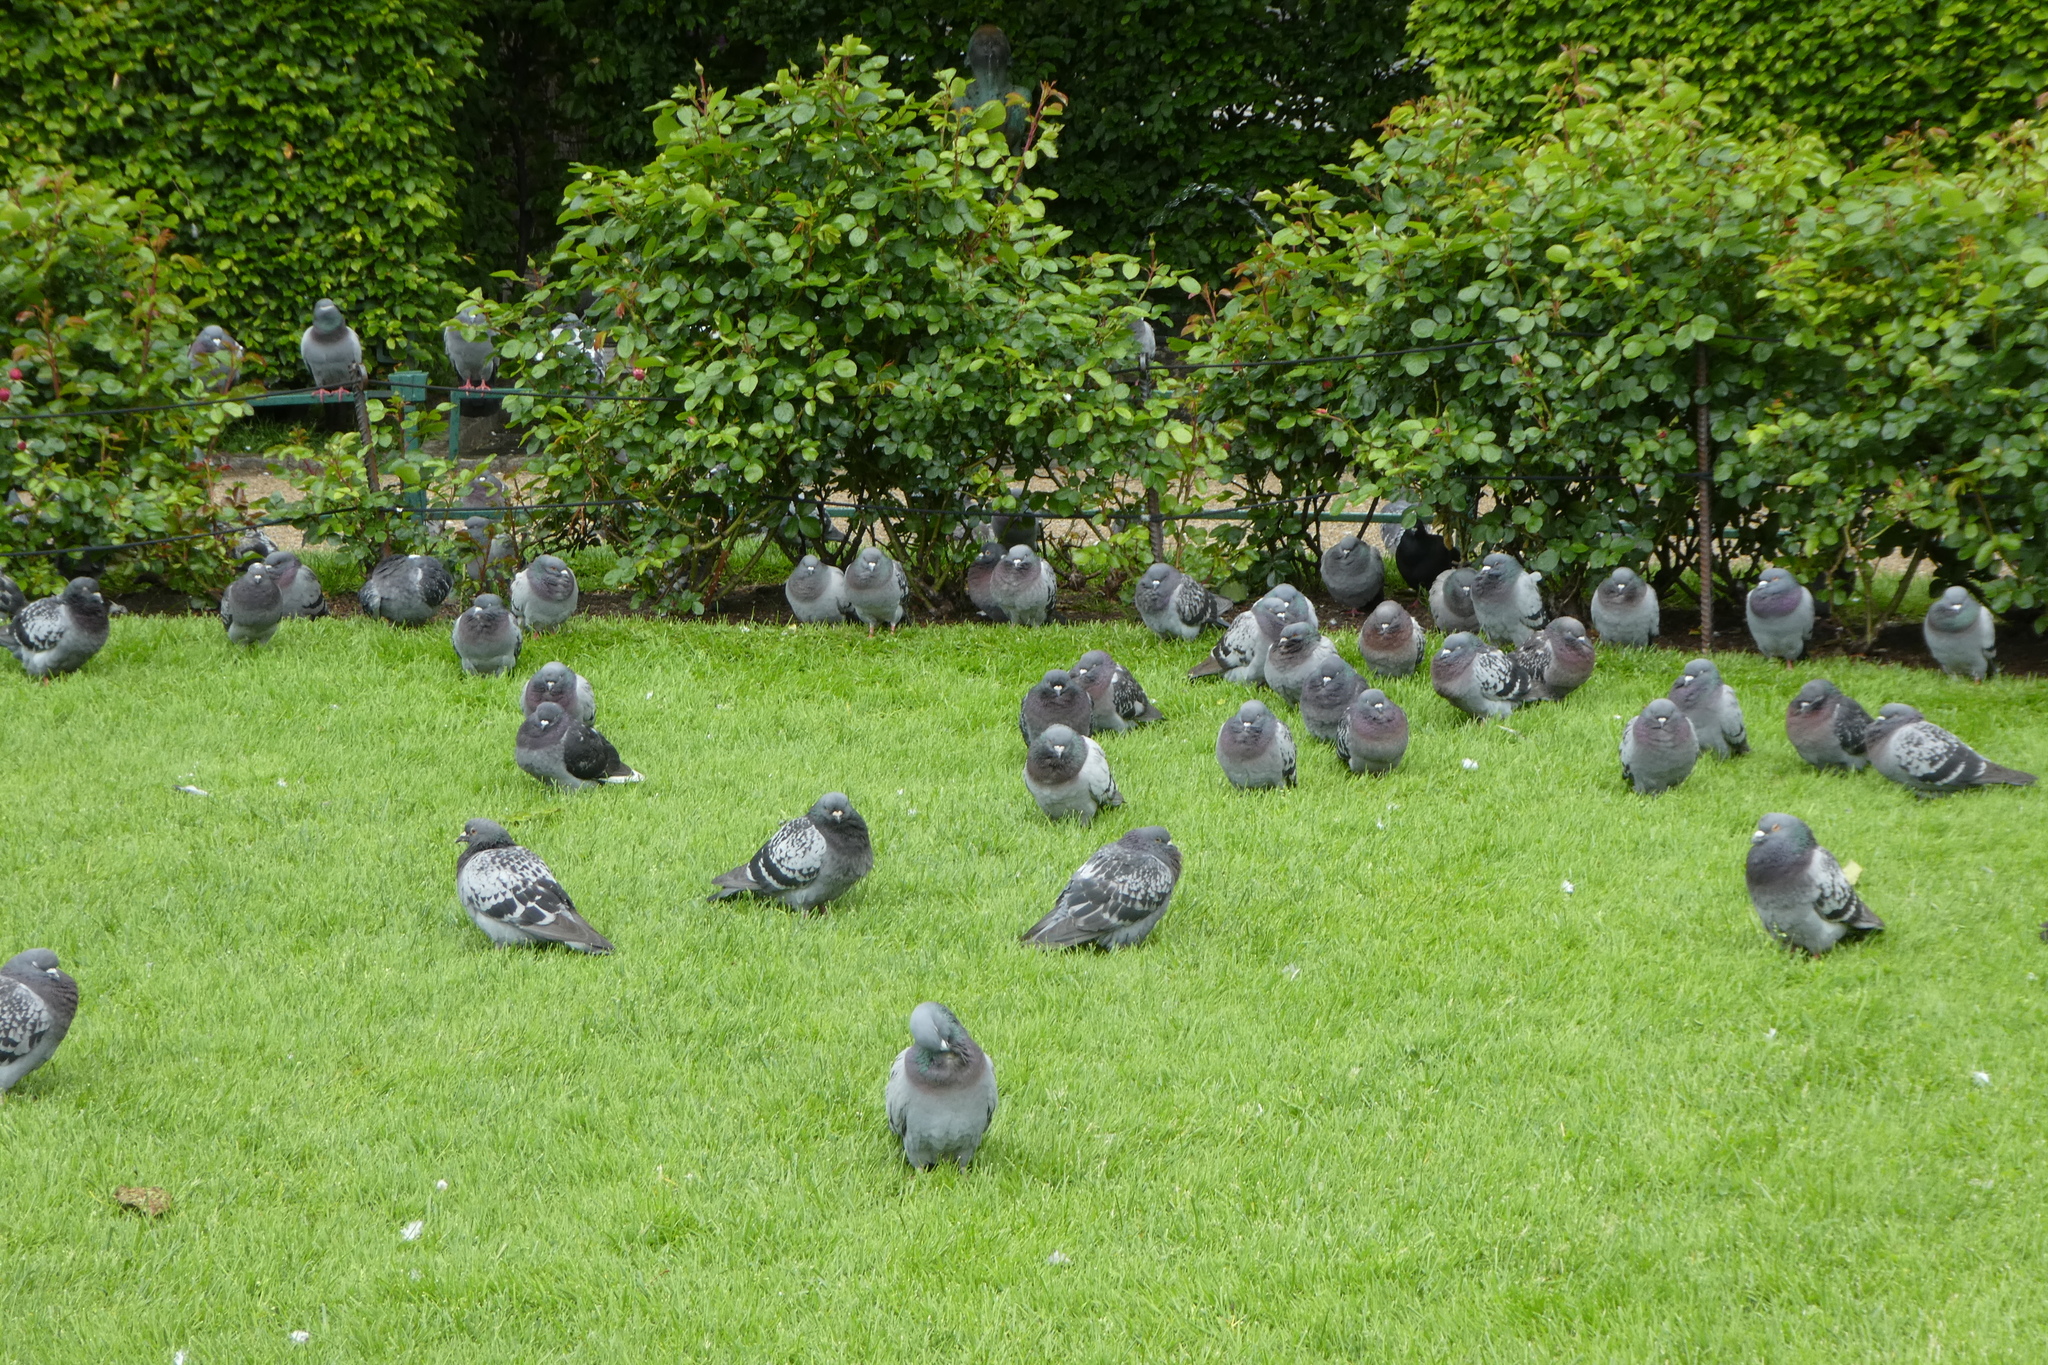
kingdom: Animalia
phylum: Chordata
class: Aves
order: Columbiformes
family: Columbidae
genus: Columba
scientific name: Columba livia
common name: Rock pigeon
